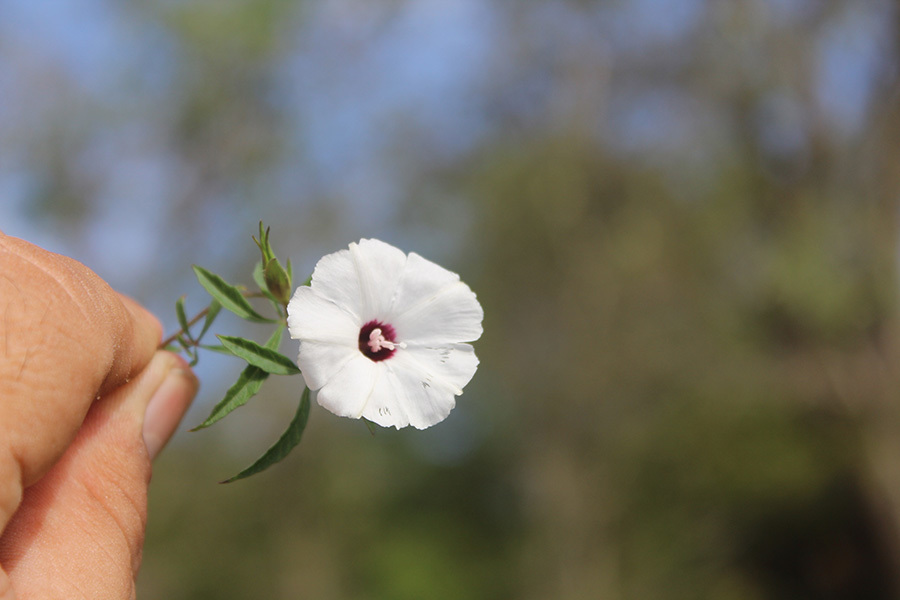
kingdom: Plantae
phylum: Tracheophyta
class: Magnoliopsida
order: Solanales
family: Convolvulaceae
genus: Distimake
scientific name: Distimake lobulibracteatus
